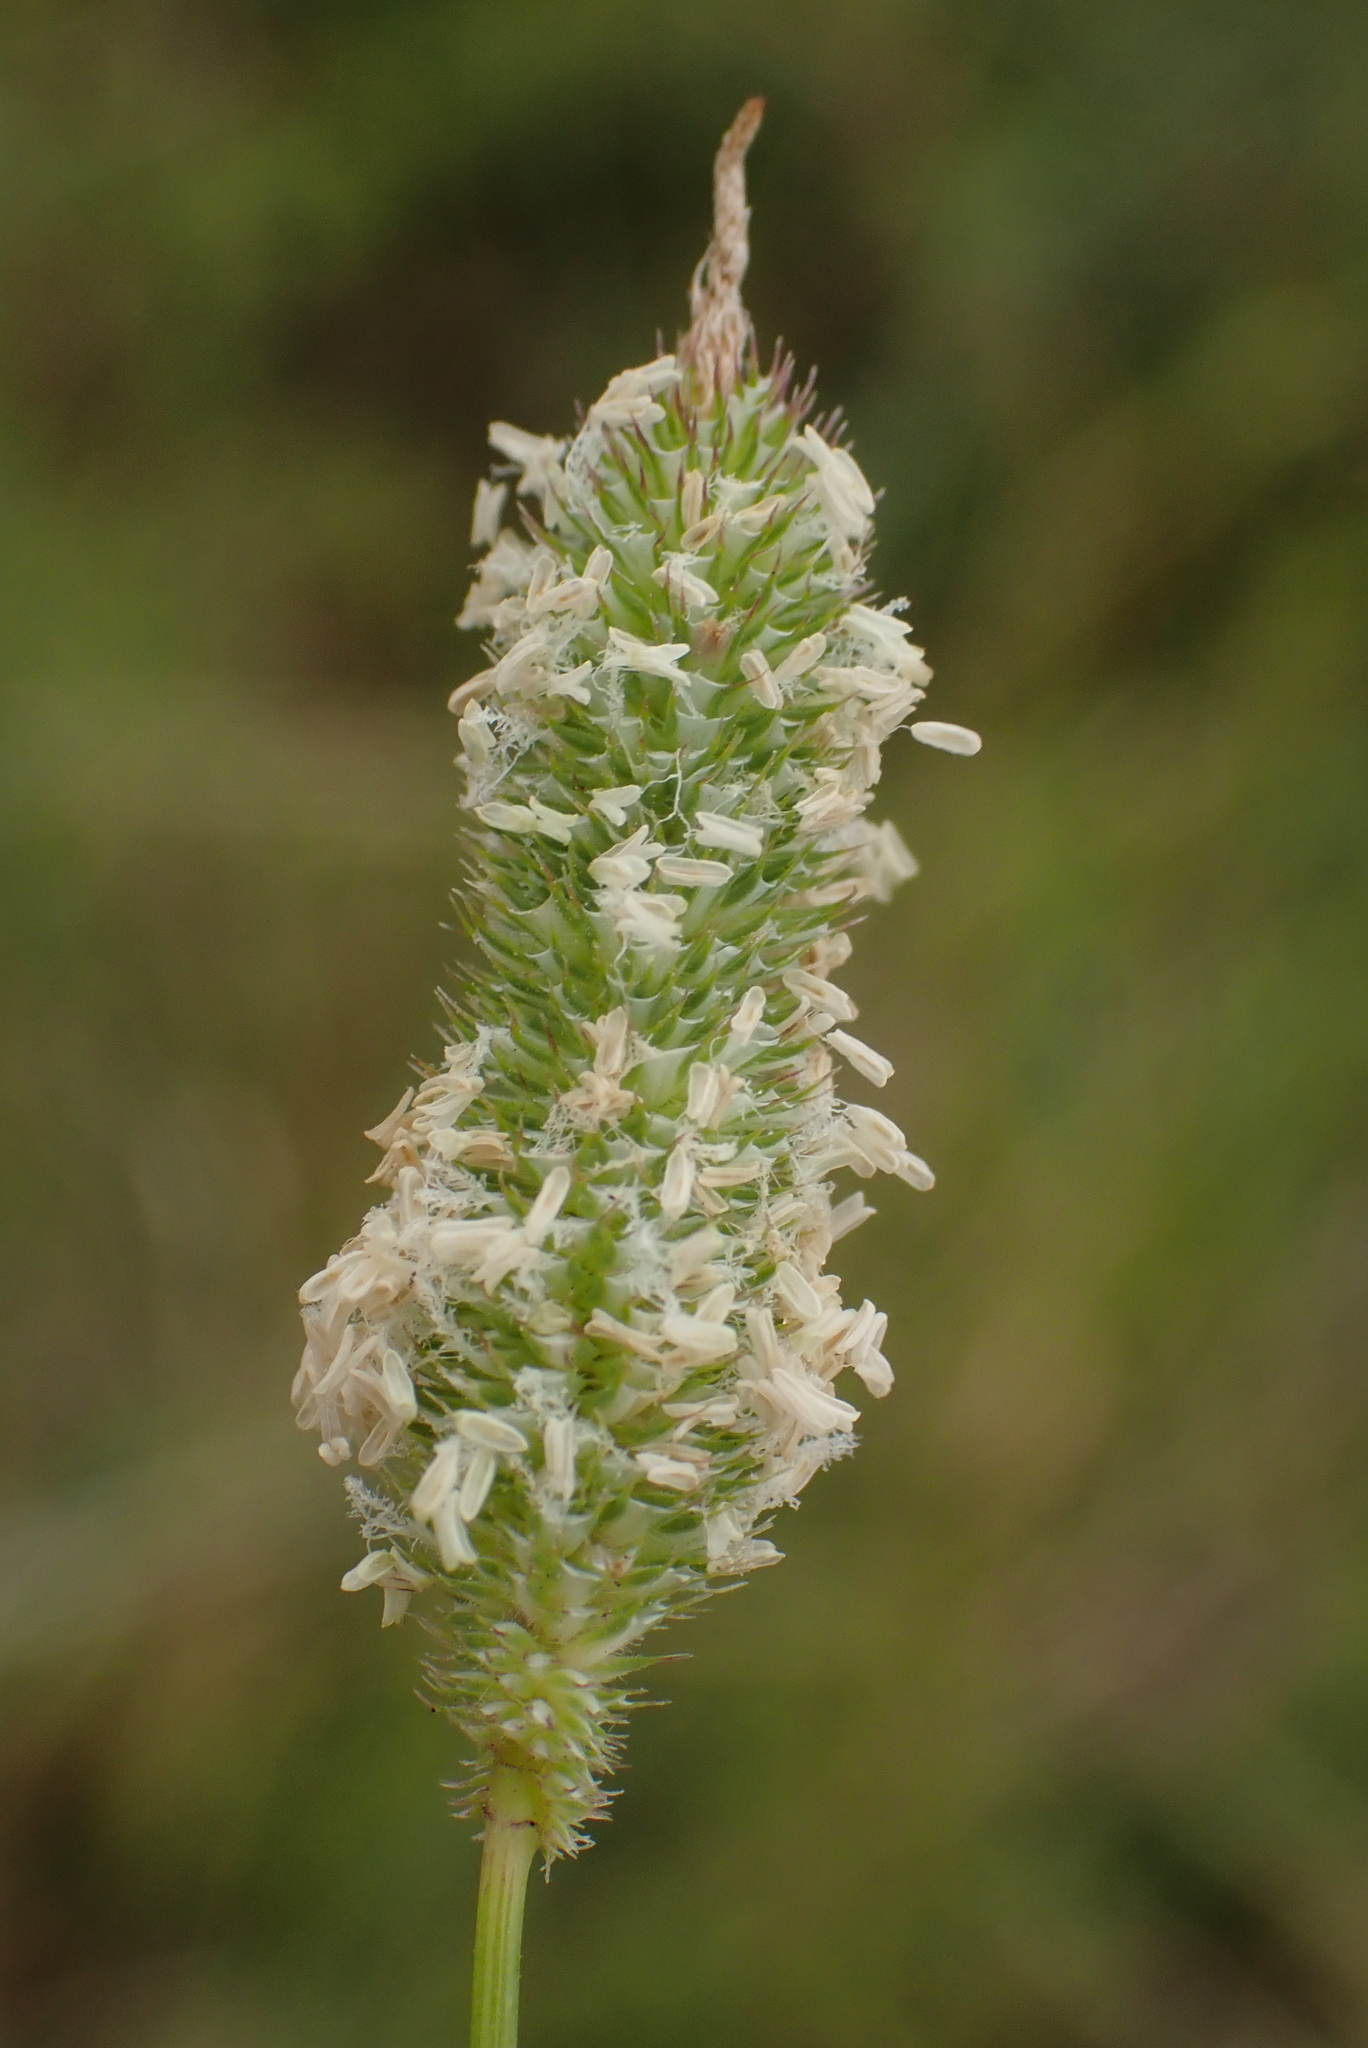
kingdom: Plantae
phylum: Tracheophyta
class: Liliopsida
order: Poales
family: Poaceae
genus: Phleum
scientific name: Phleum arenarium
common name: Sand cat's-tail
